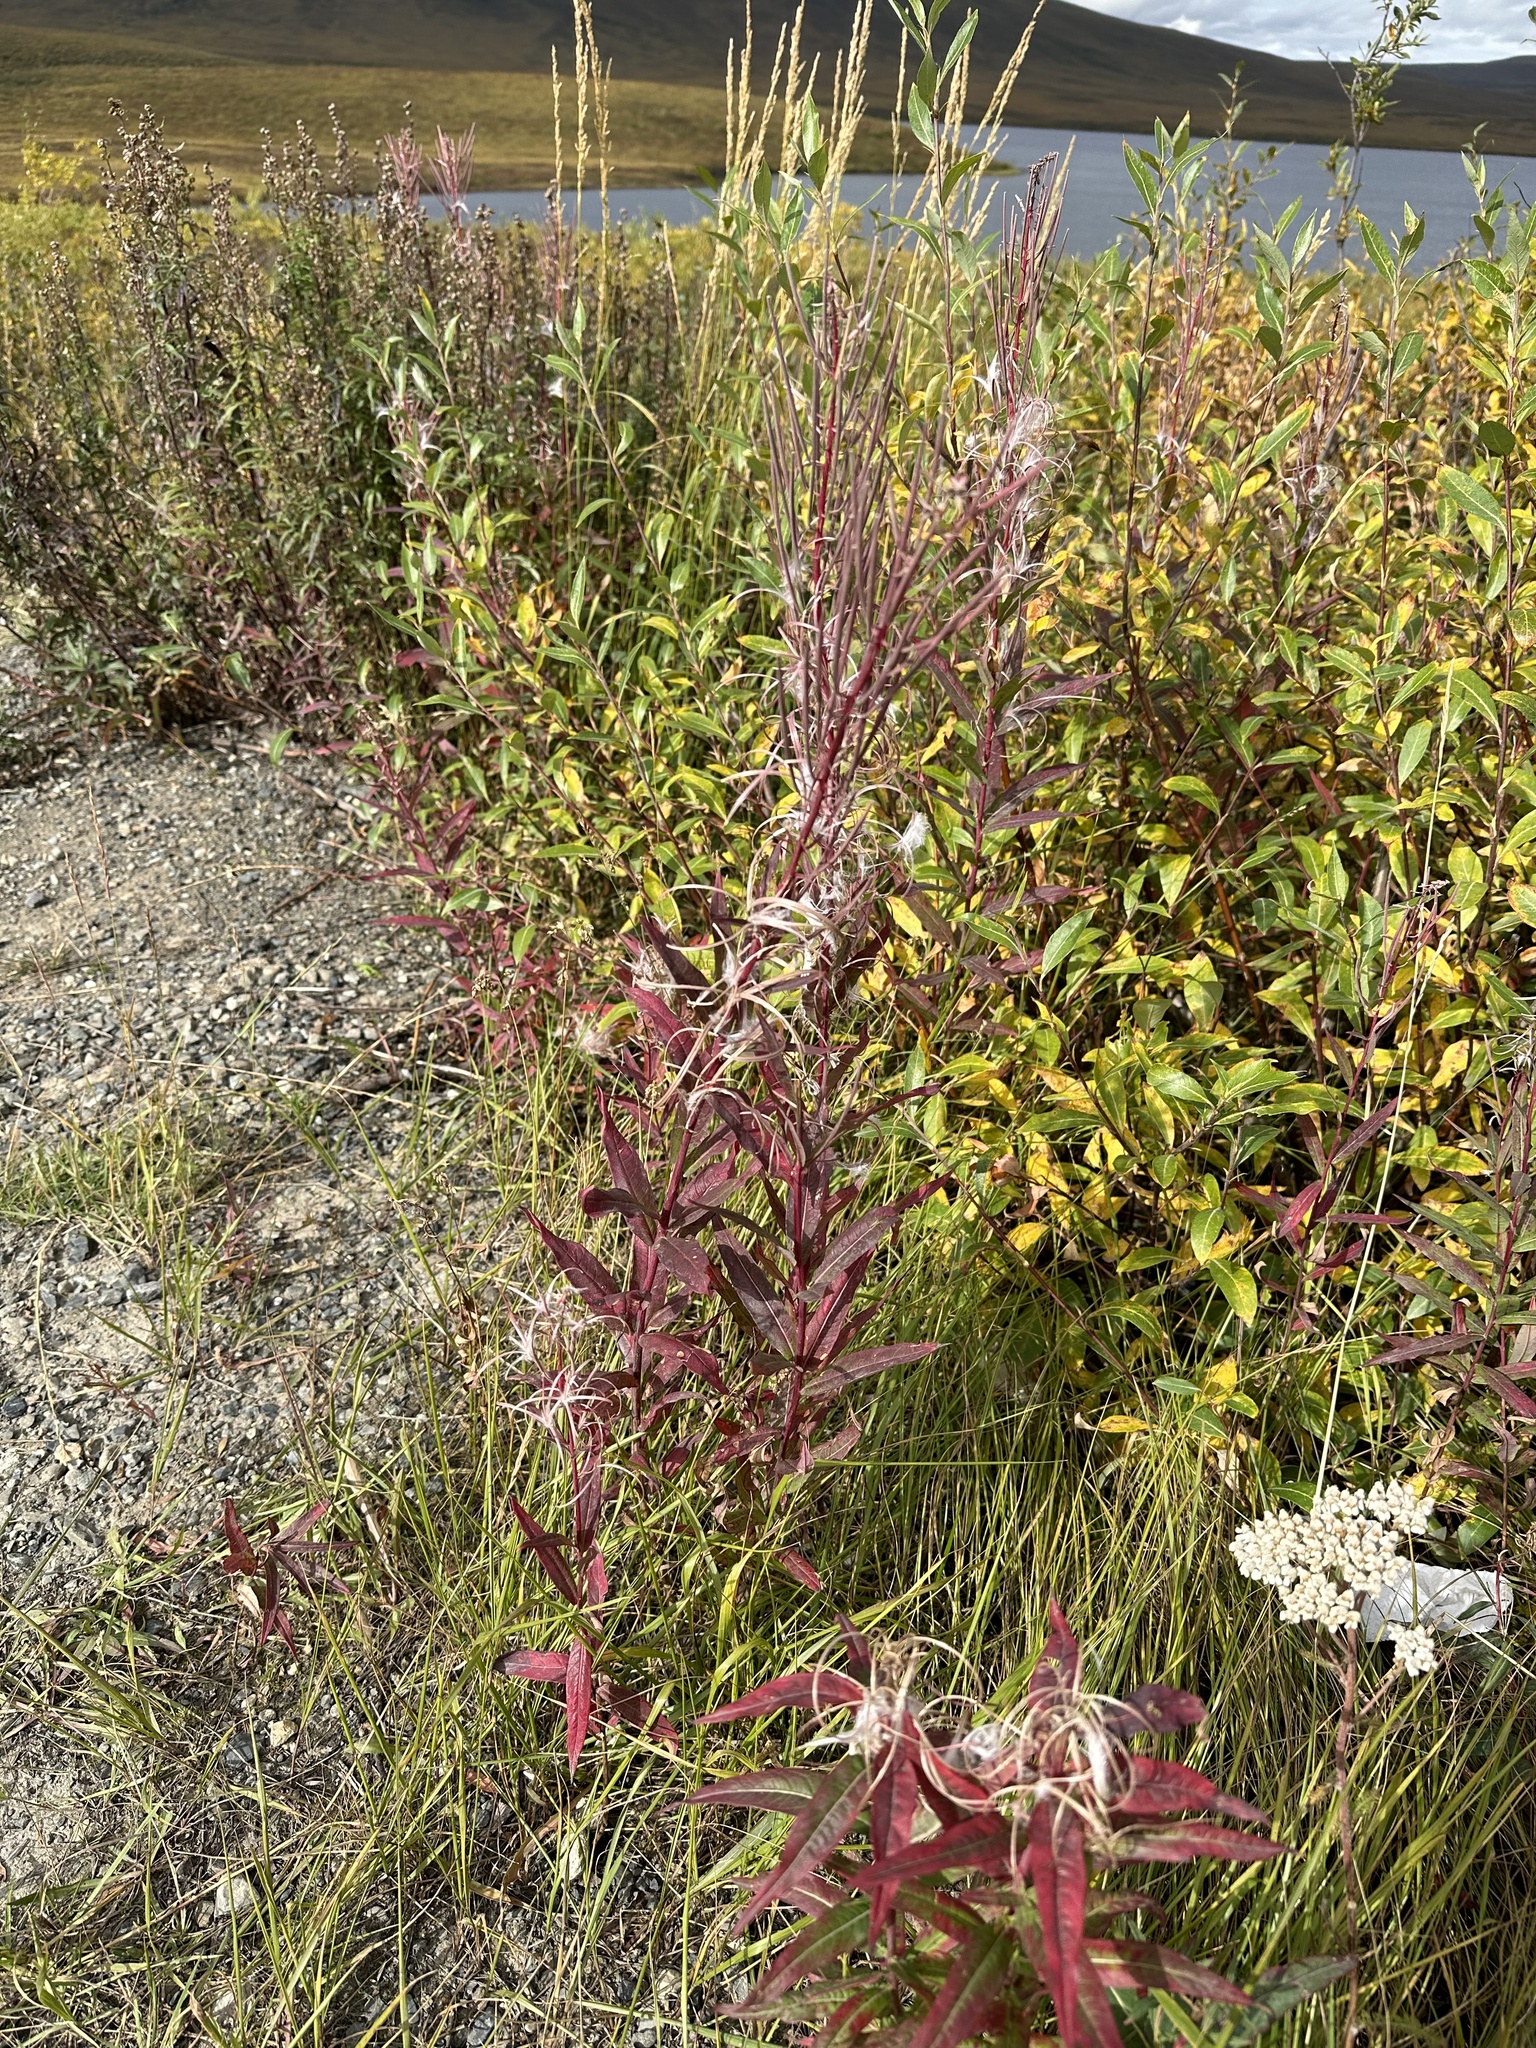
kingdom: Plantae
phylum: Tracheophyta
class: Magnoliopsida
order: Myrtales
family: Onagraceae
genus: Chamaenerion
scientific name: Chamaenerion angustifolium
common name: Fireweed
